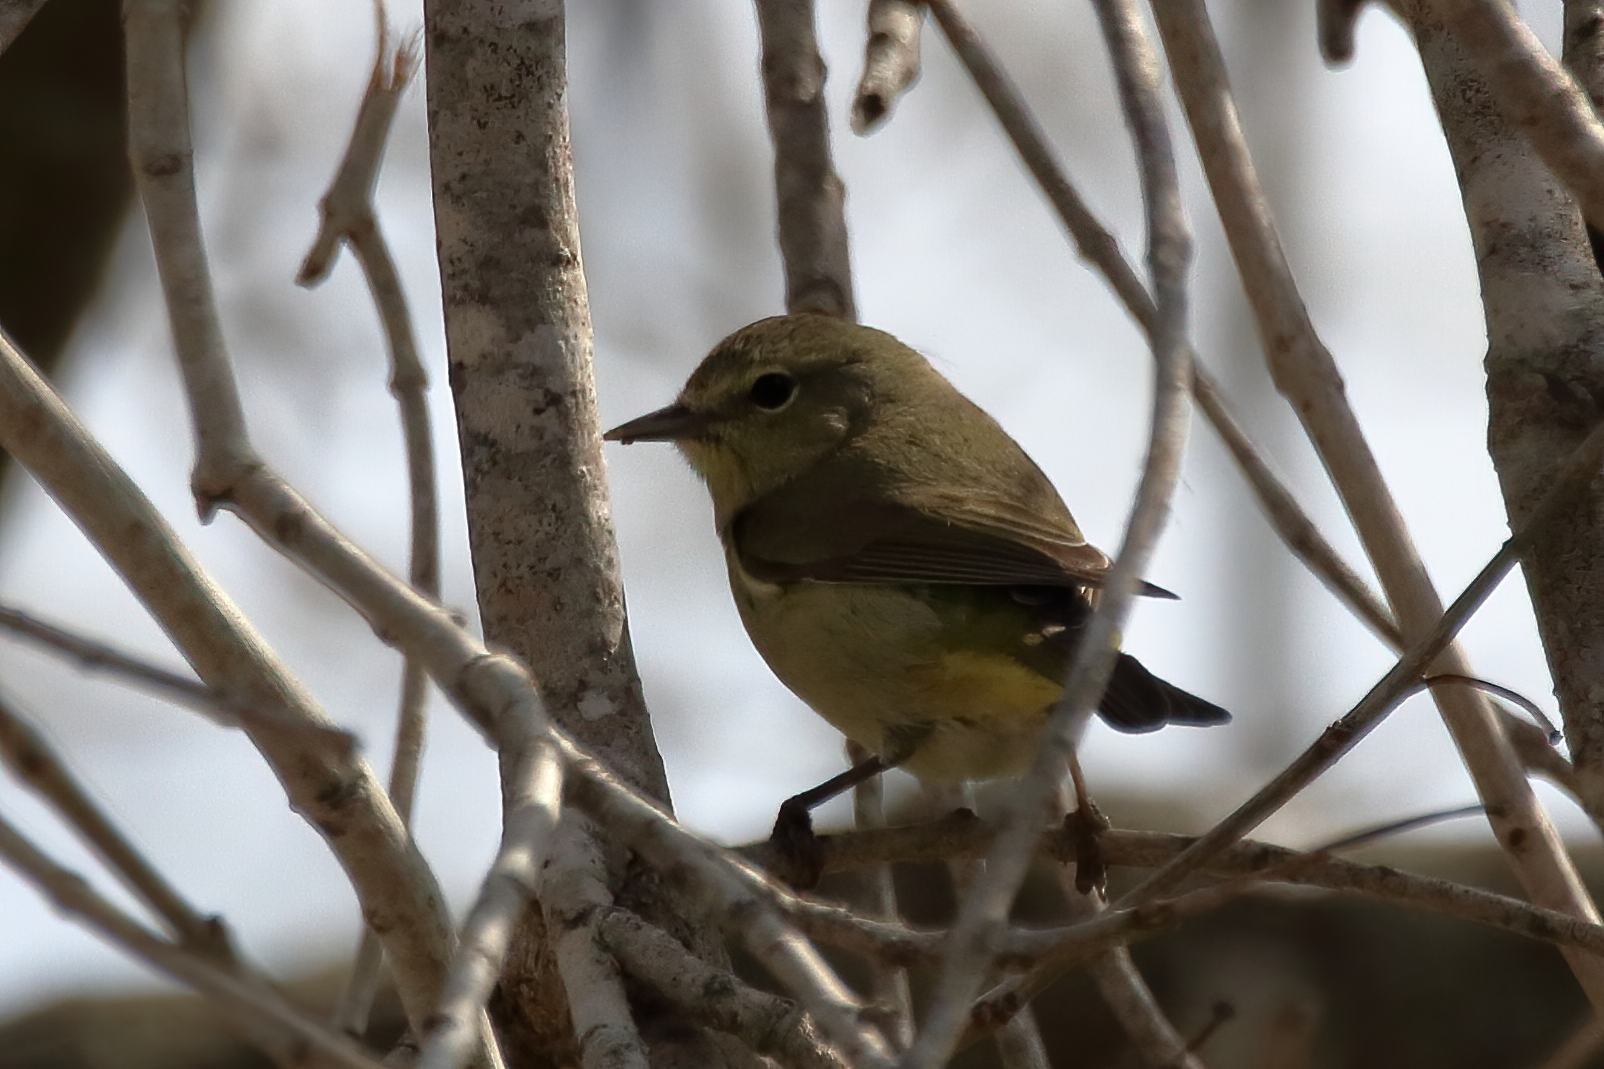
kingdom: Animalia
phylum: Chordata
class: Aves
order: Passeriformes
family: Parulidae
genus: Leiothlypis
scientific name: Leiothlypis celata
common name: Orange-crowned warbler
